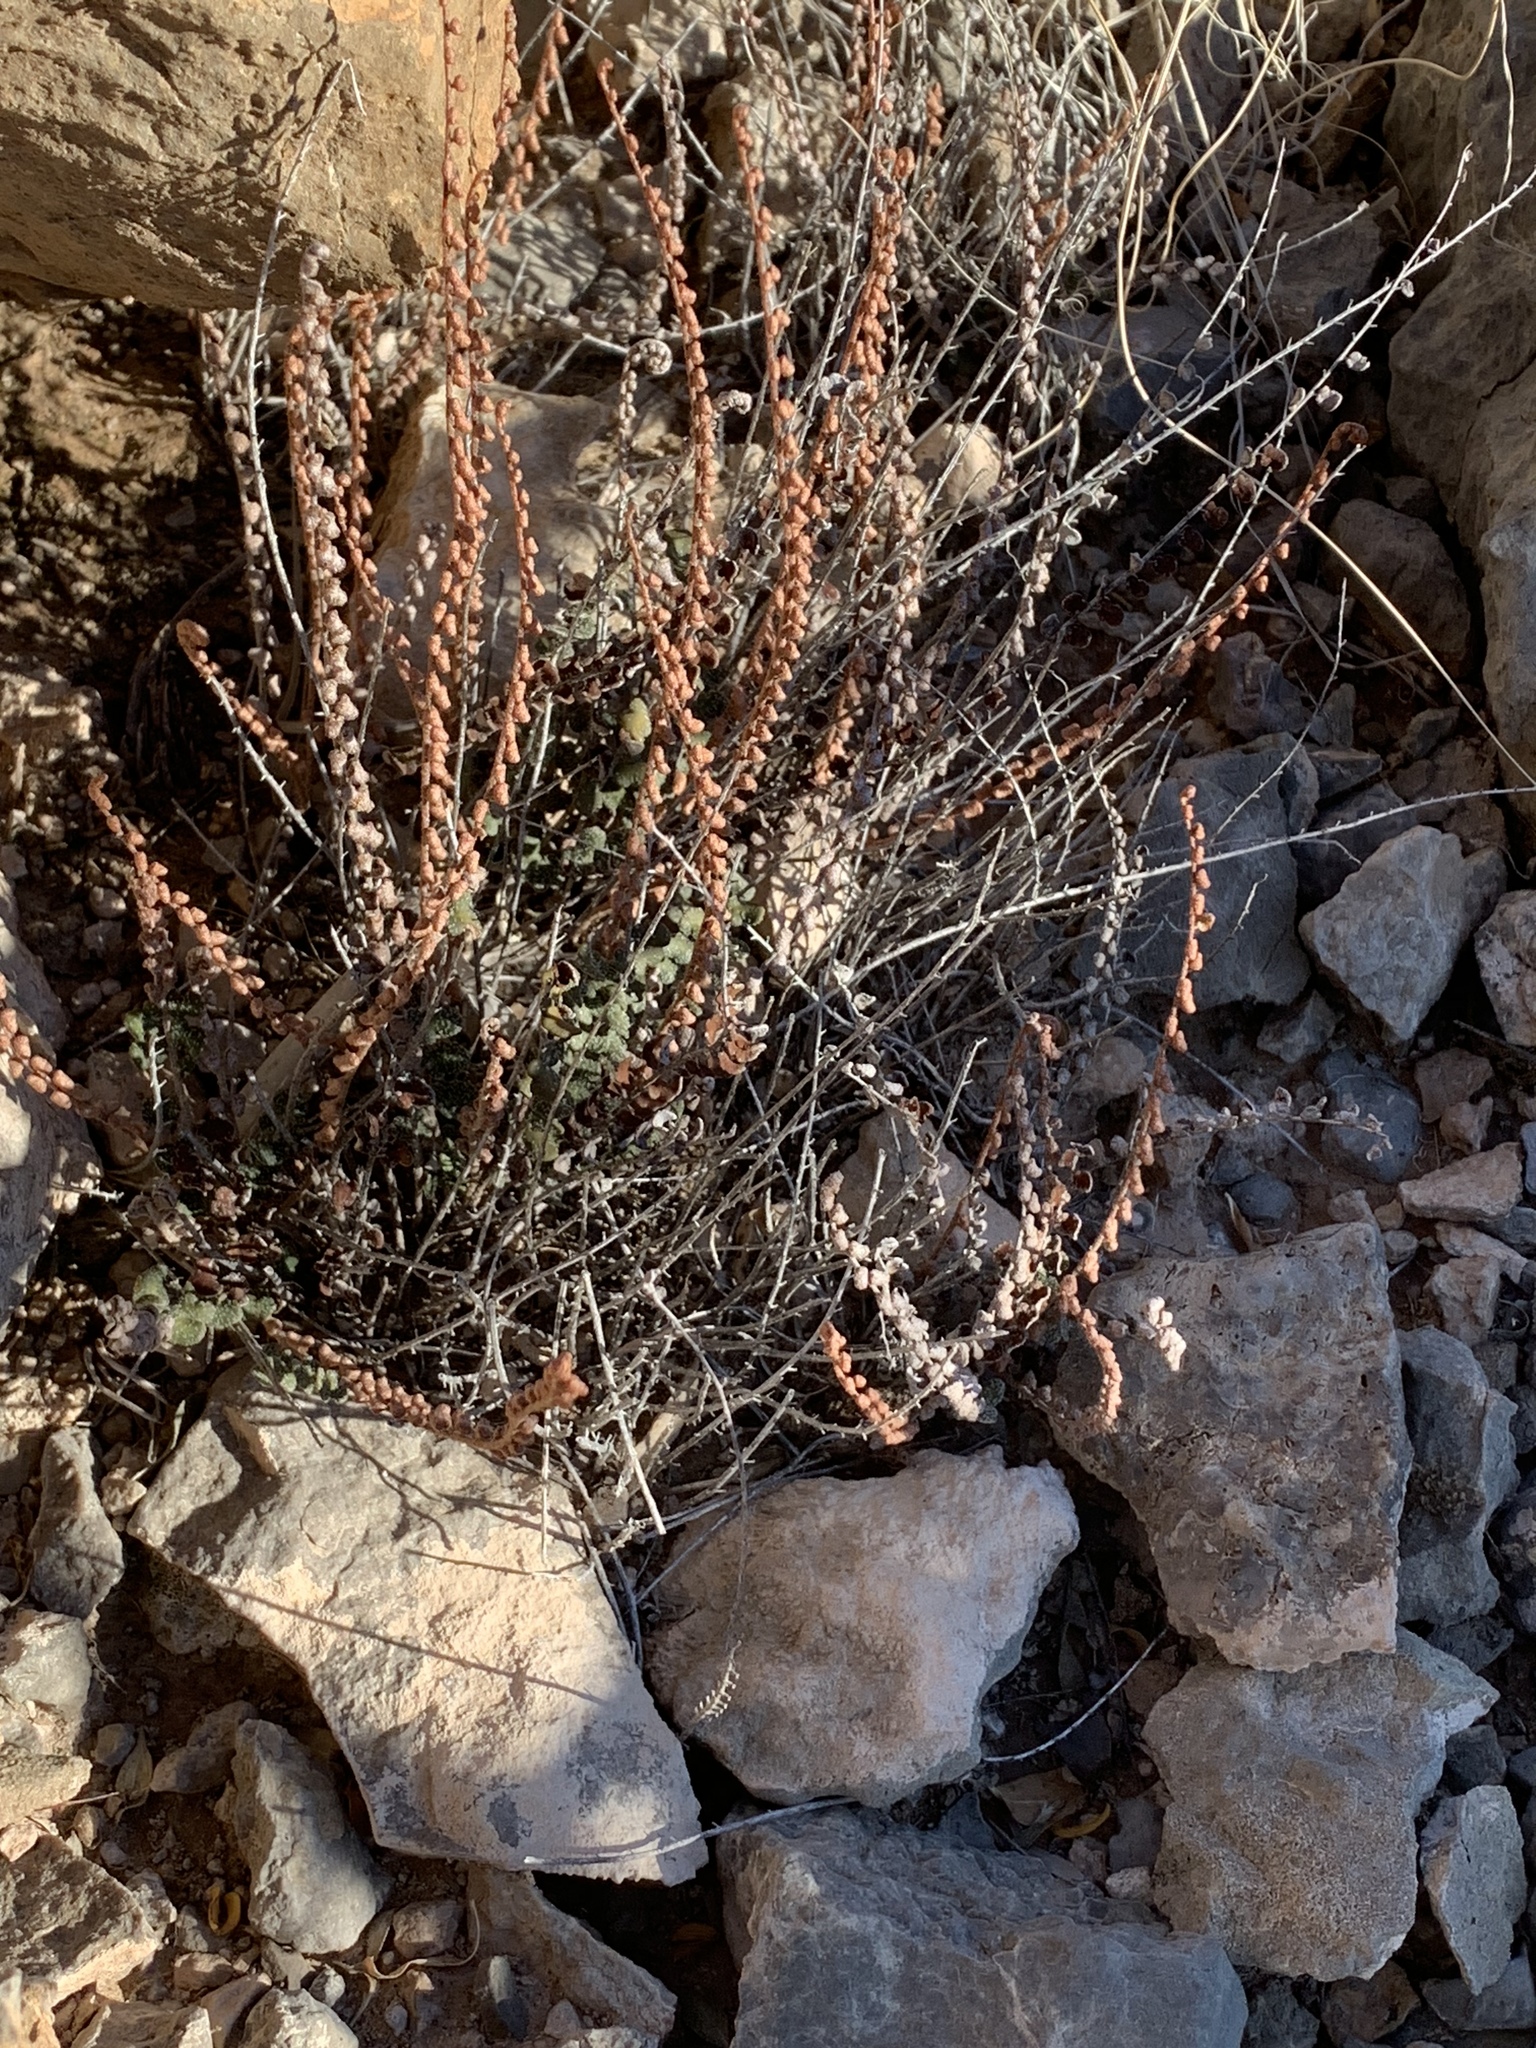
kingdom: Plantae
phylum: Tracheophyta
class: Polypodiopsida
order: Polypodiales
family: Pteridaceae
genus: Astrolepis
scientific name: Astrolepis cochisensis
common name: Scaly cloak fern
